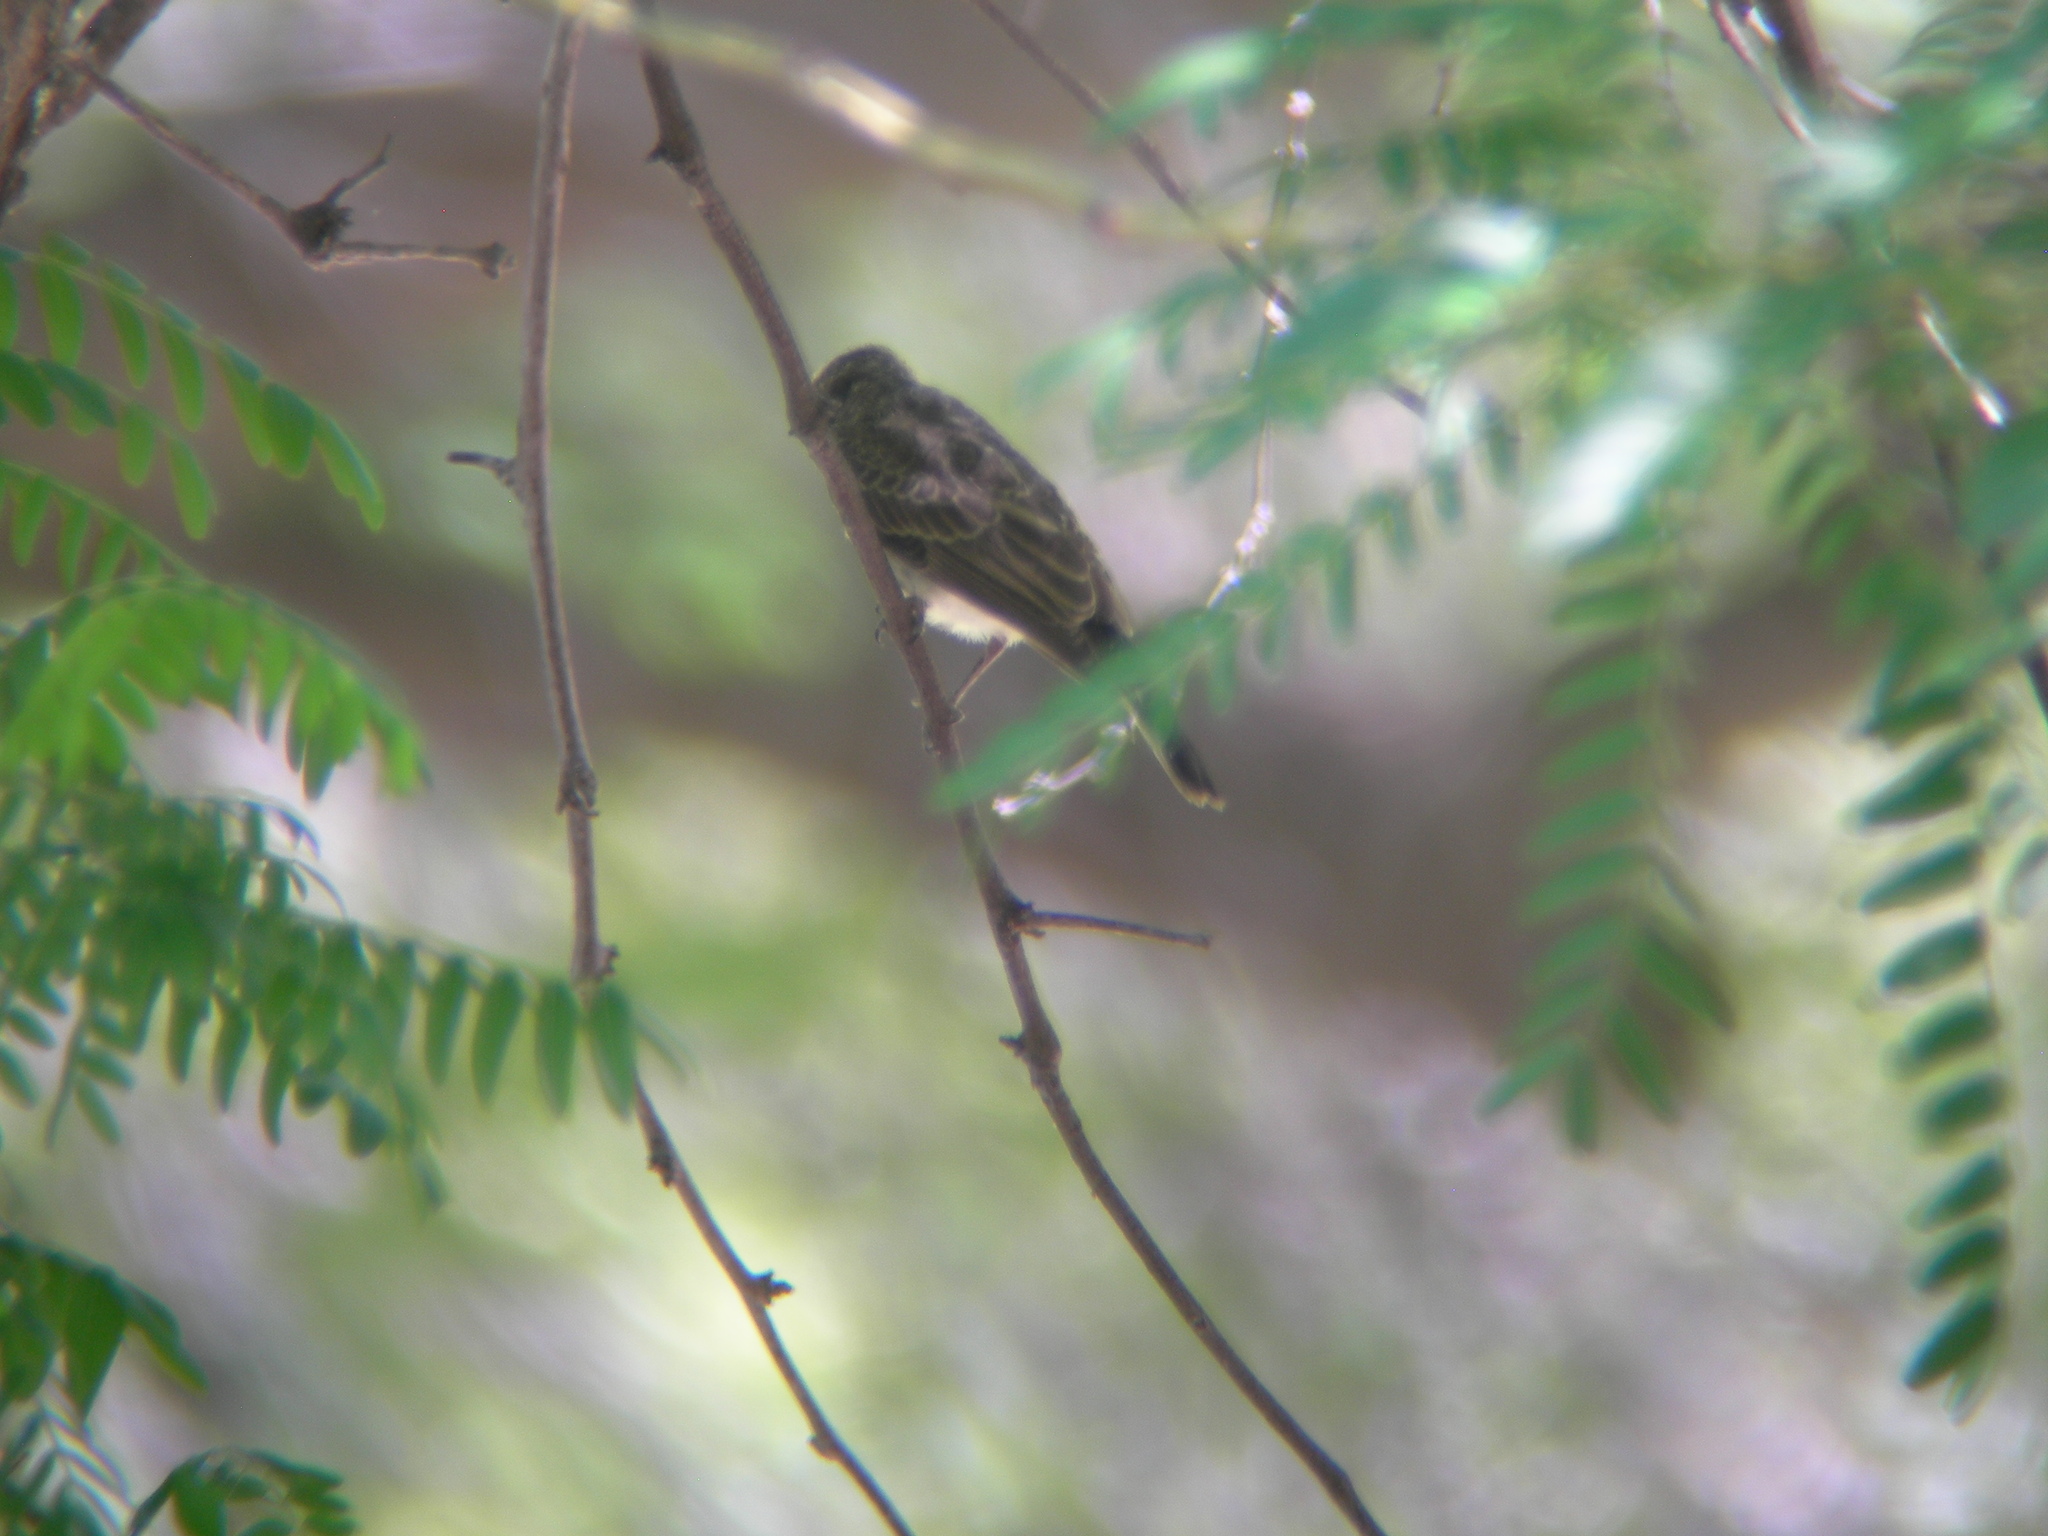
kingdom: Animalia
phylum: Chordata
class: Aves
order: Passeriformes
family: Tyrannidae
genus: Pyrocephalus
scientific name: Pyrocephalus rubinus
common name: Vermilion flycatcher
